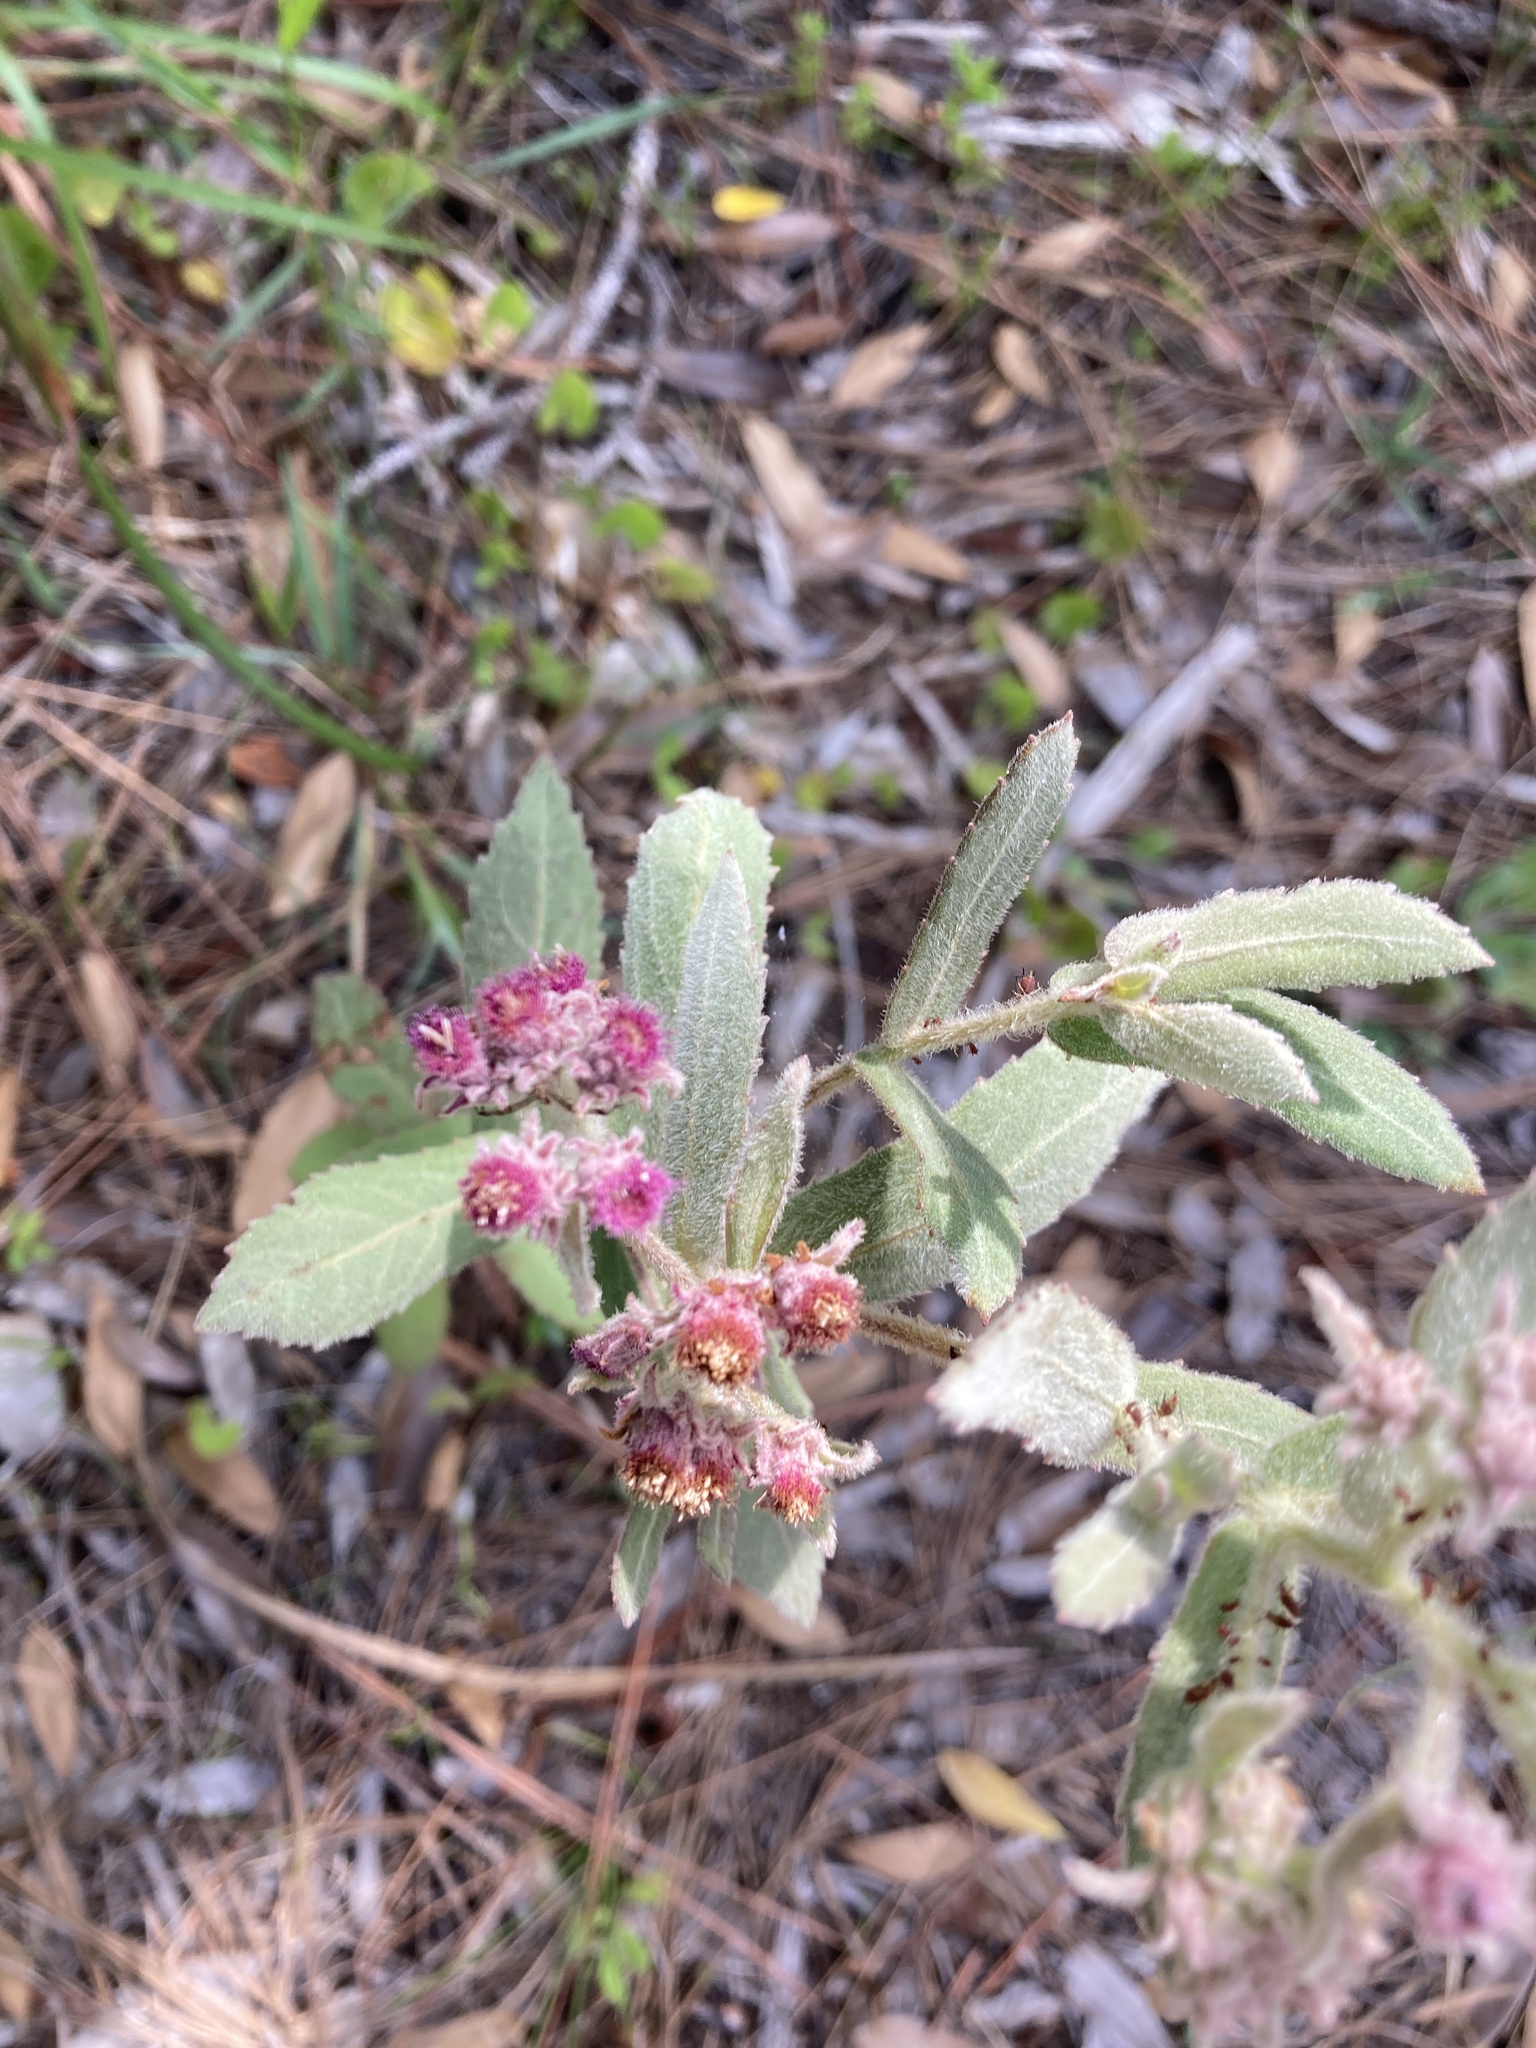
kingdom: Plantae
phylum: Tracheophyta
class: Magnoliopsida
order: Asterales
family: Asteraceae
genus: Pluchea
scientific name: Pluchea baccharis
